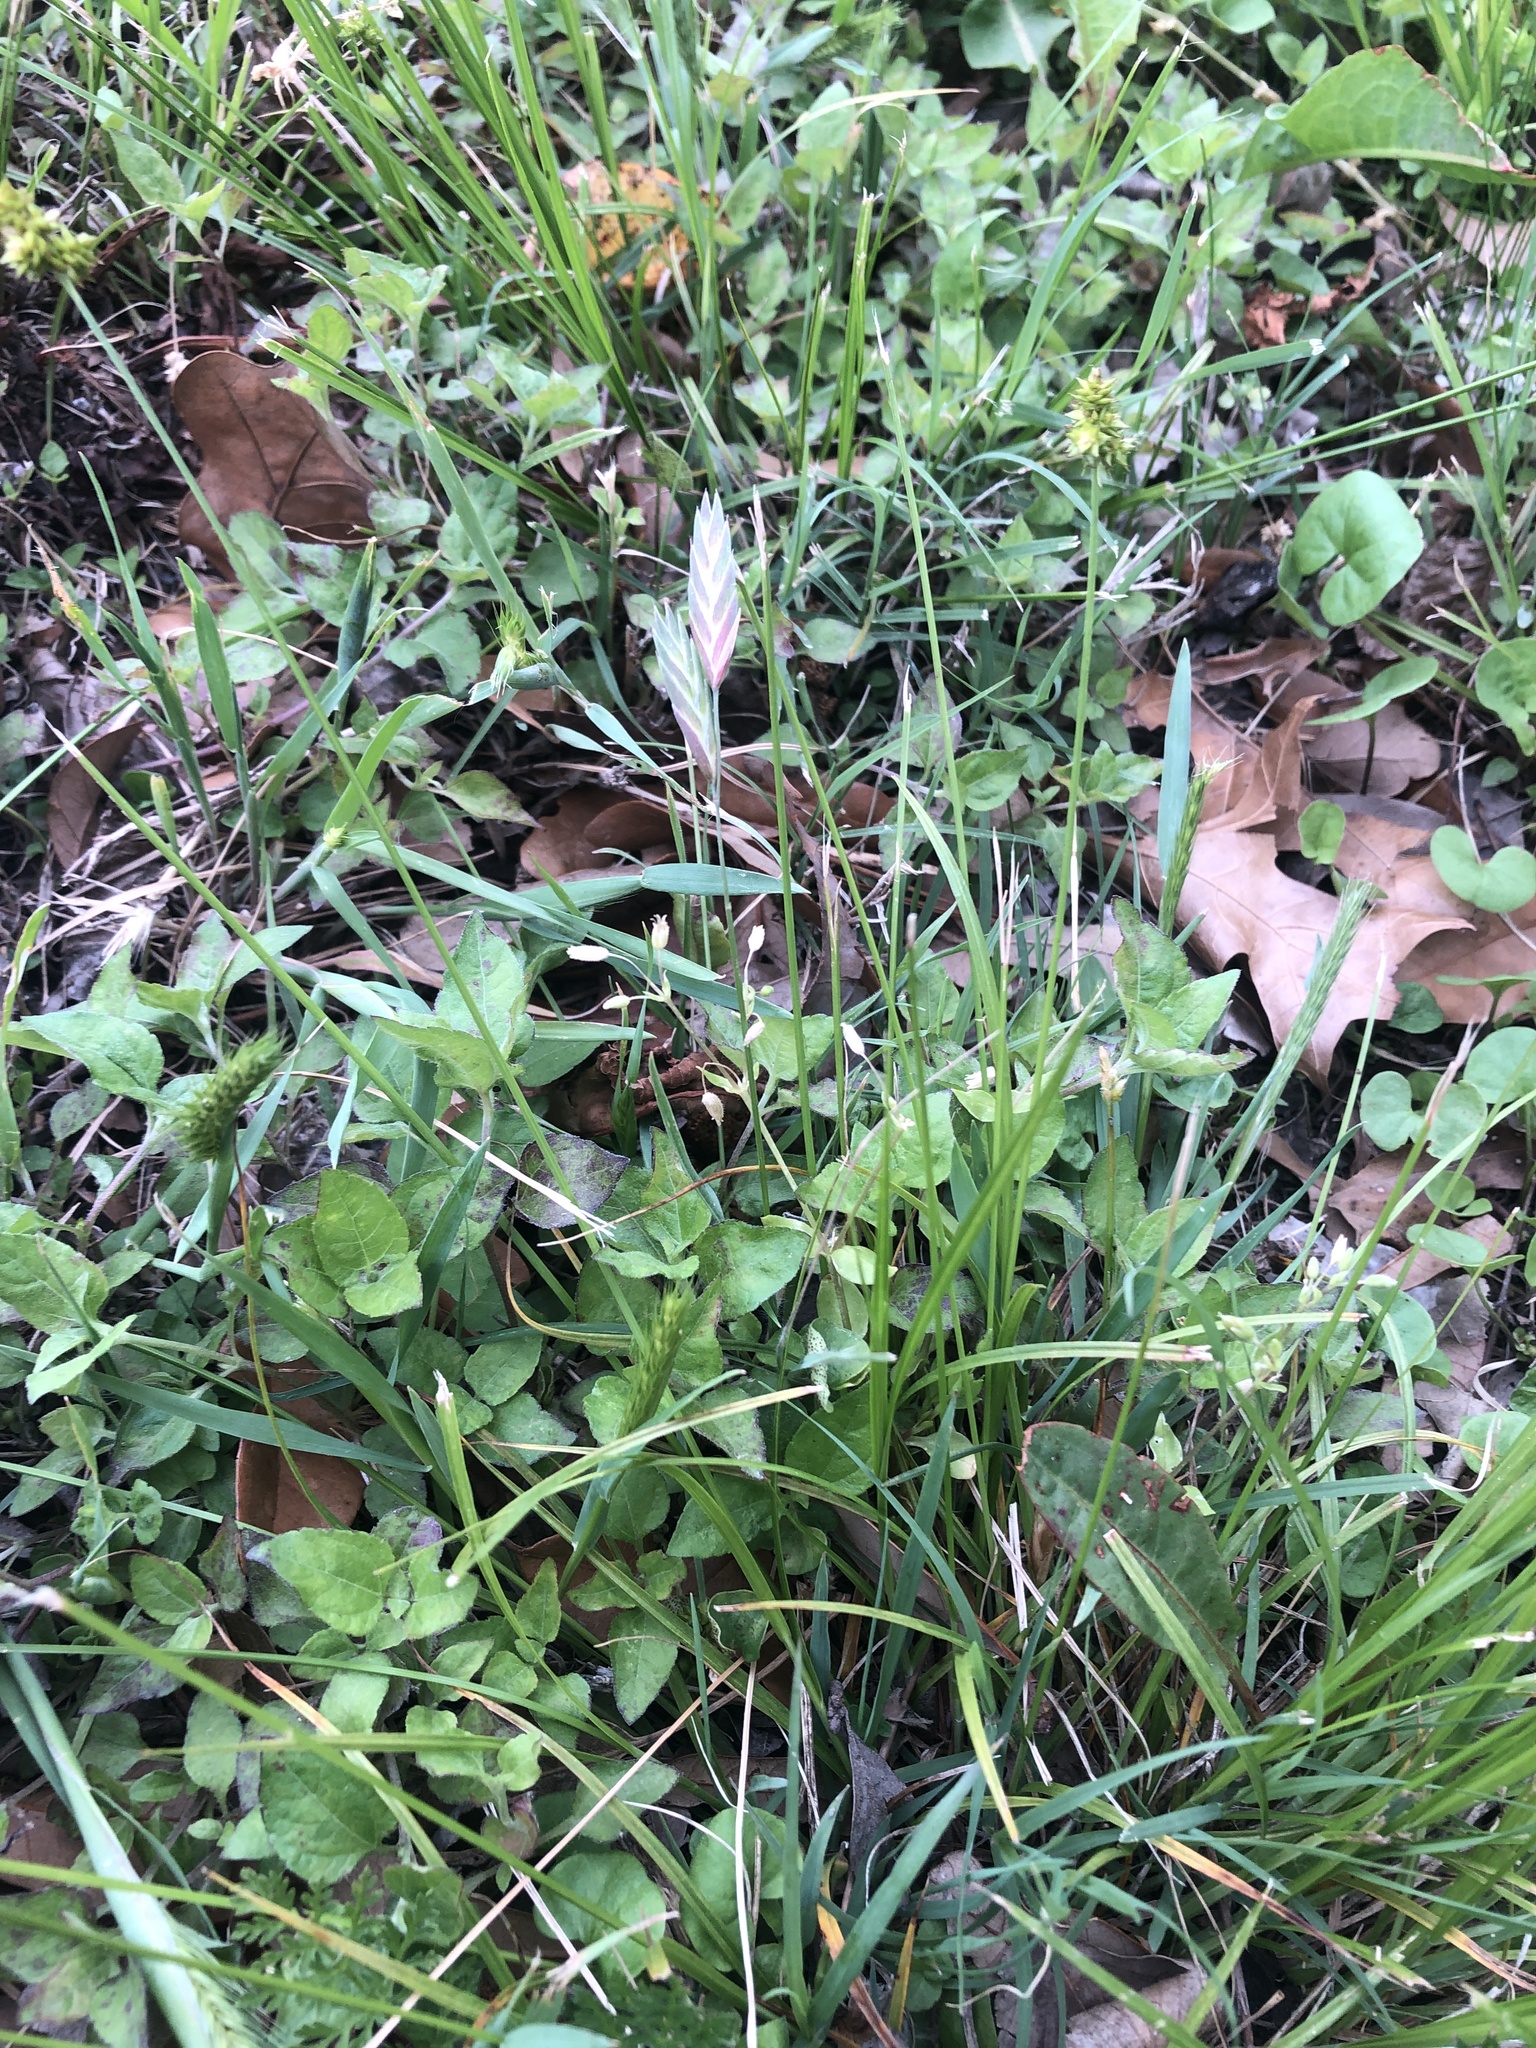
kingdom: Plantae
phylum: Tracheophyta
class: Liliopsida
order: Poales
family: Poaceae
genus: Bromus
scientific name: Bromus catharticus
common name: Rescuegrass
